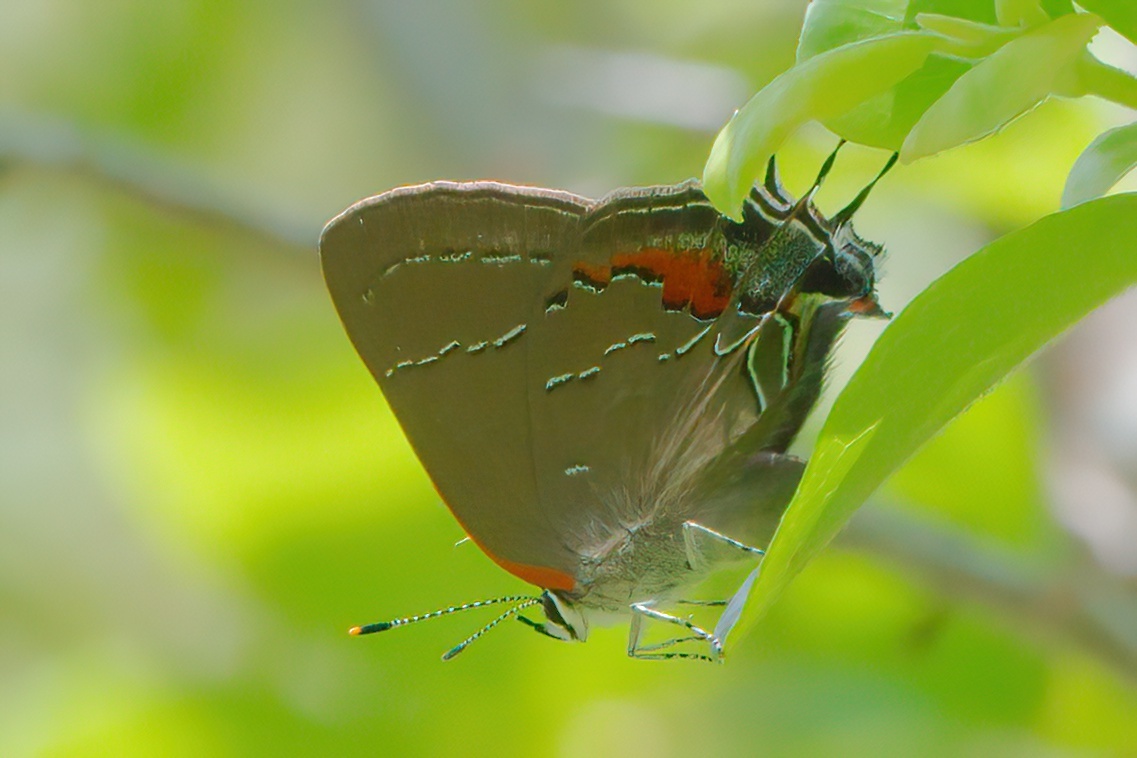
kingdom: Animalia
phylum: Arthropoda
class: Insecta
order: Lepidoptera
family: Lycaenidae
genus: Fixsenia
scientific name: Fixsenia favonius
